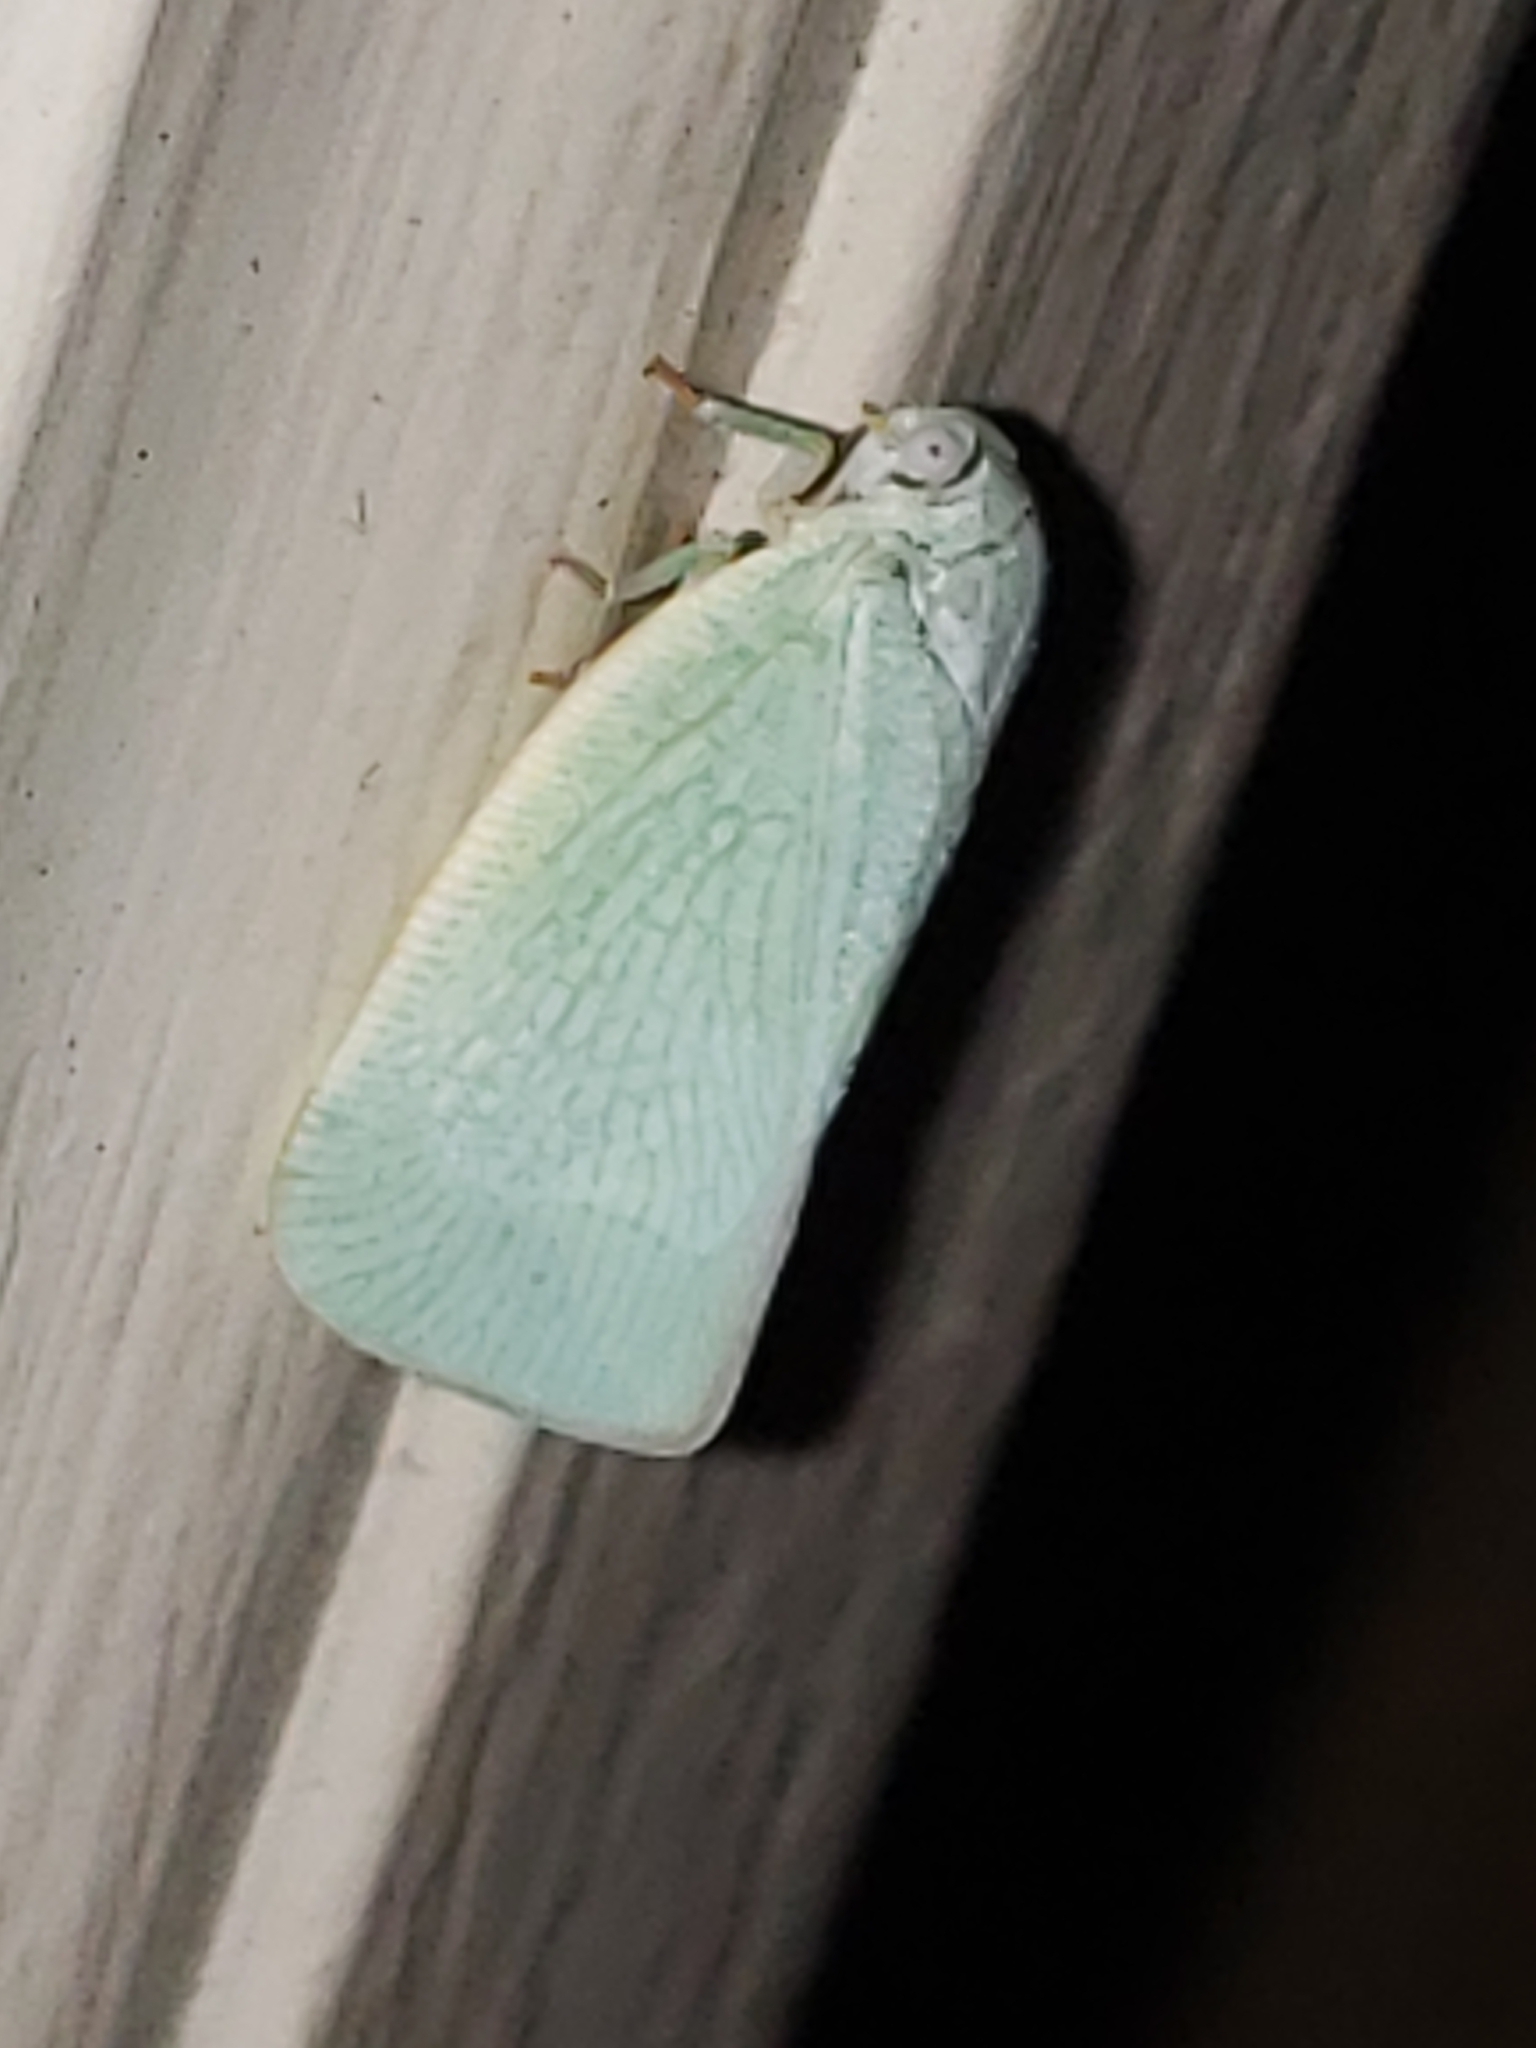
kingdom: Animalia
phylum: Arthropoda
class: Insecta
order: Hemiptera
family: Flatidae
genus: Flatormenis
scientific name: Flatormenis proxima
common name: Northern flatid planthopper
